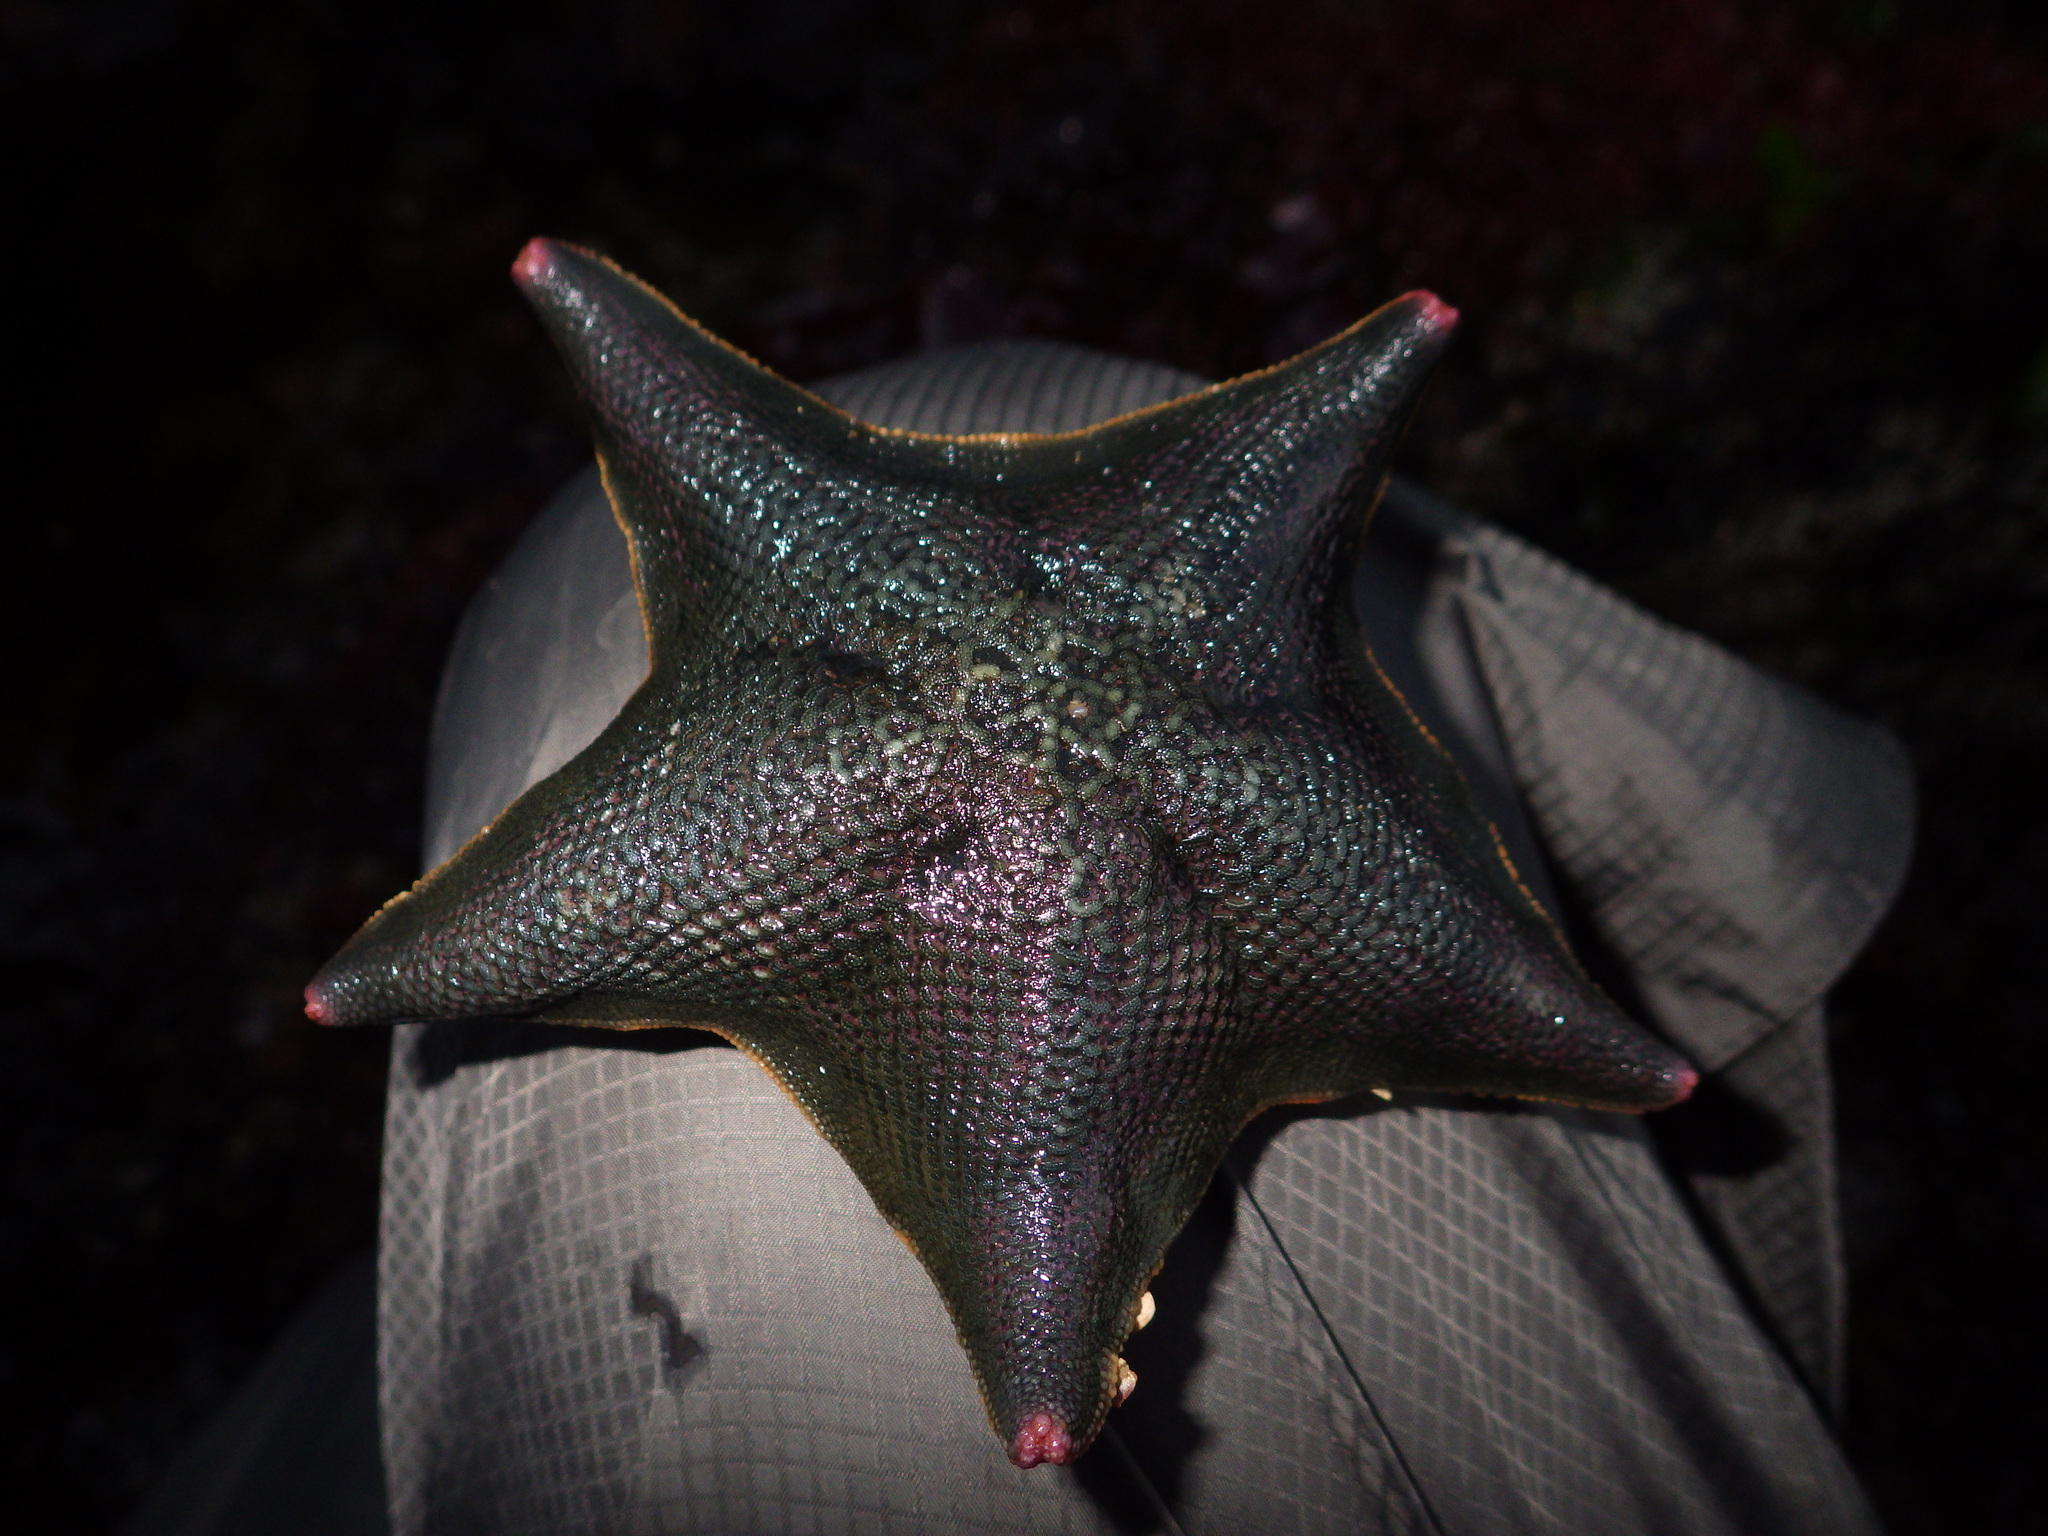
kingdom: Animalia
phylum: Echinodermata
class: Asteroidea
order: Valvatida
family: Asterinidae
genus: Patiria
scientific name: Patiria miniata
